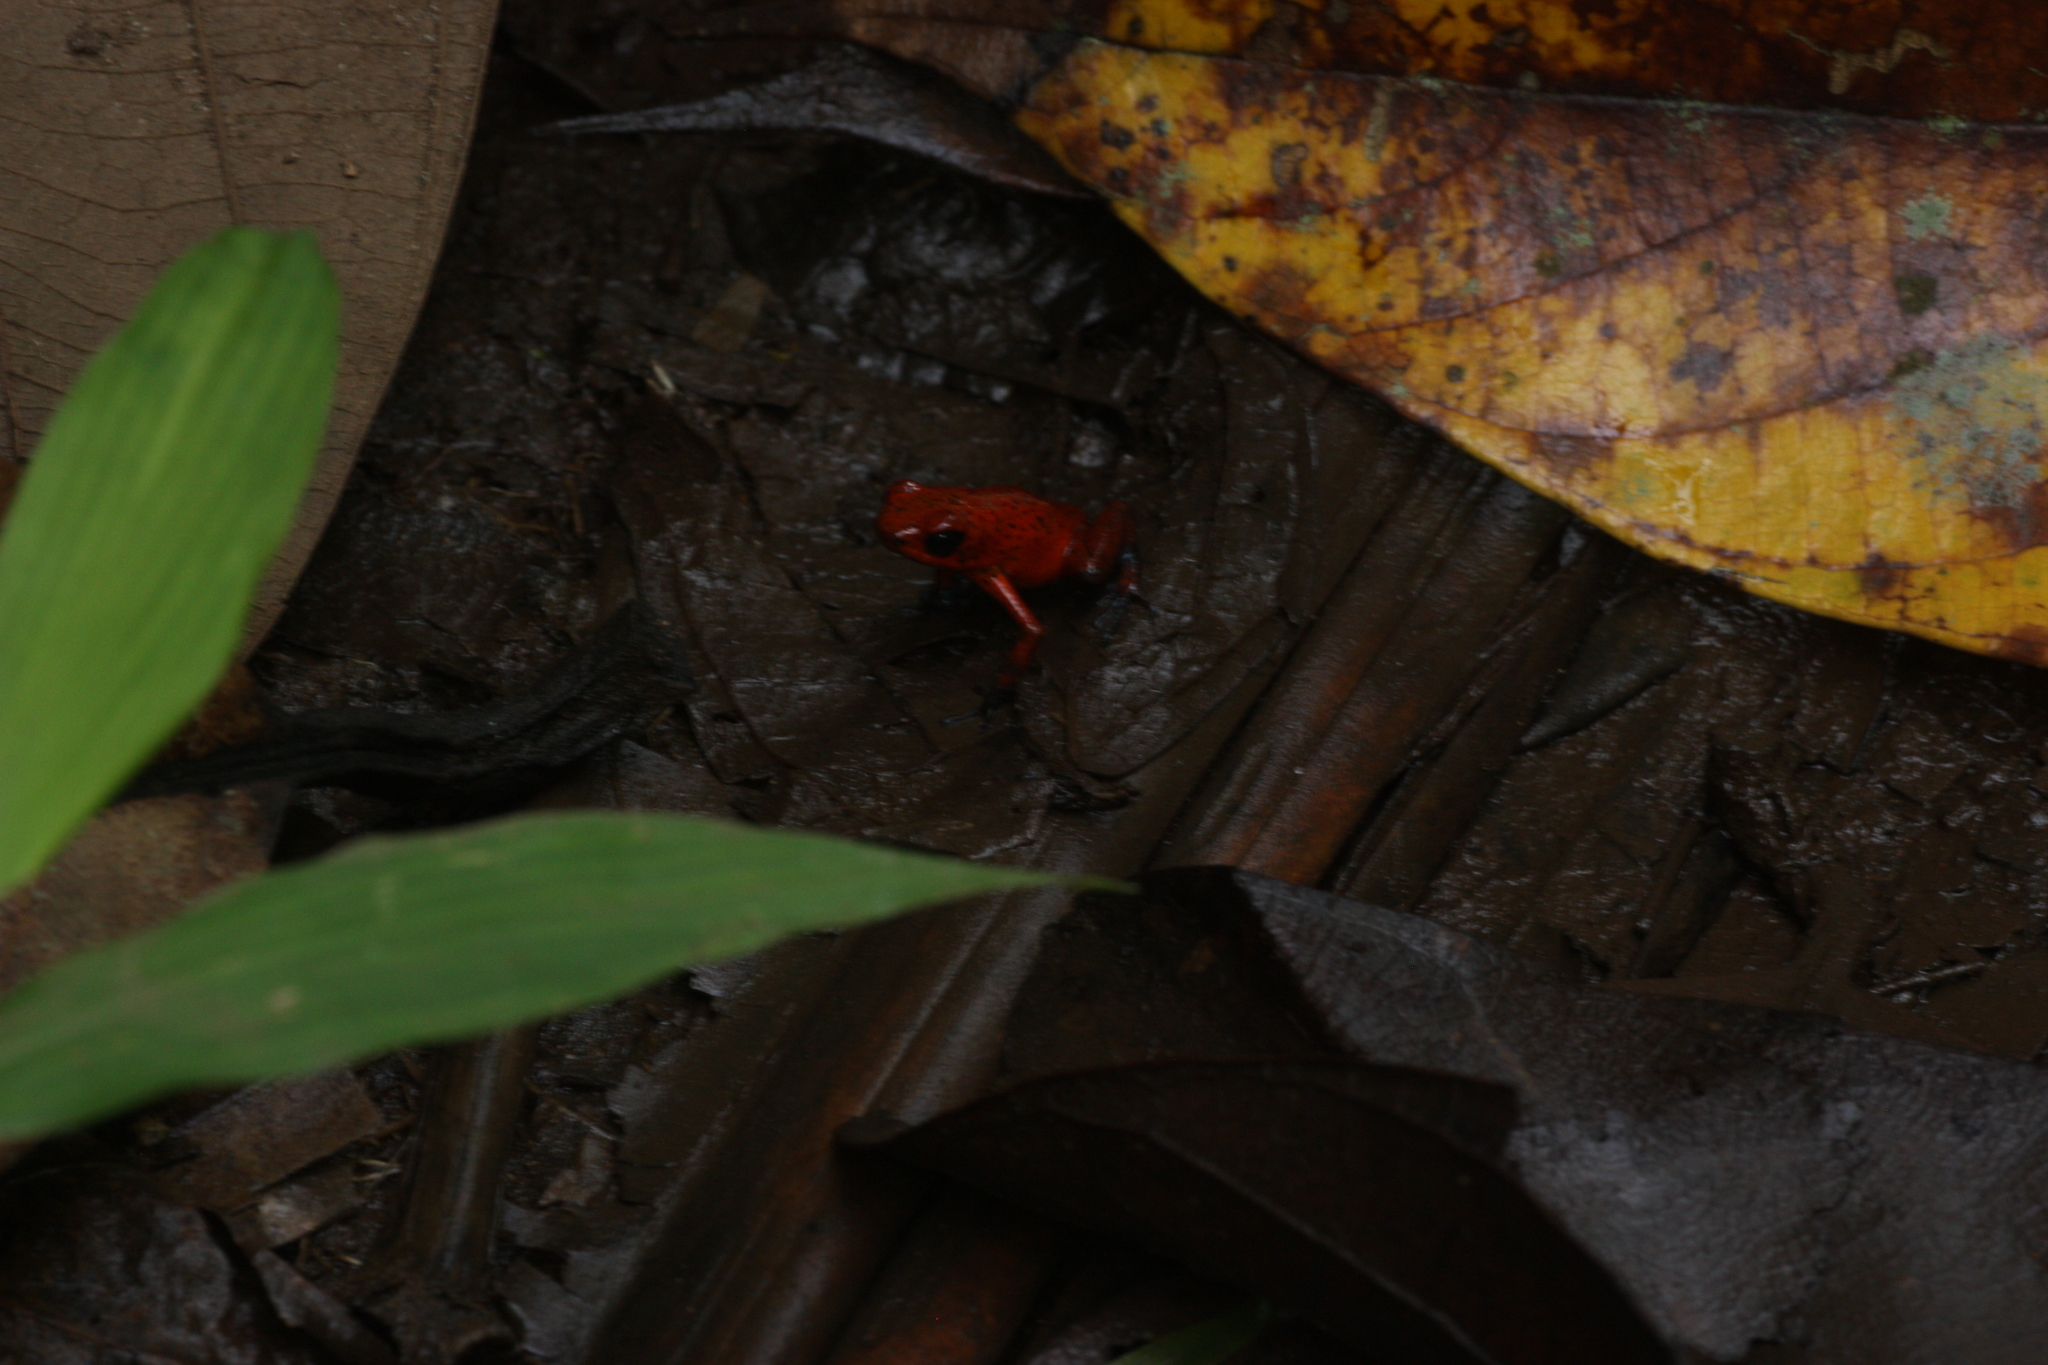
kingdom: Animalia
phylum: Chordata
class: Amphibia
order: Anura
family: Dendrobatidae
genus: Oophaga
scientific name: Oophaga pumilio
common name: Flaming poison frog
